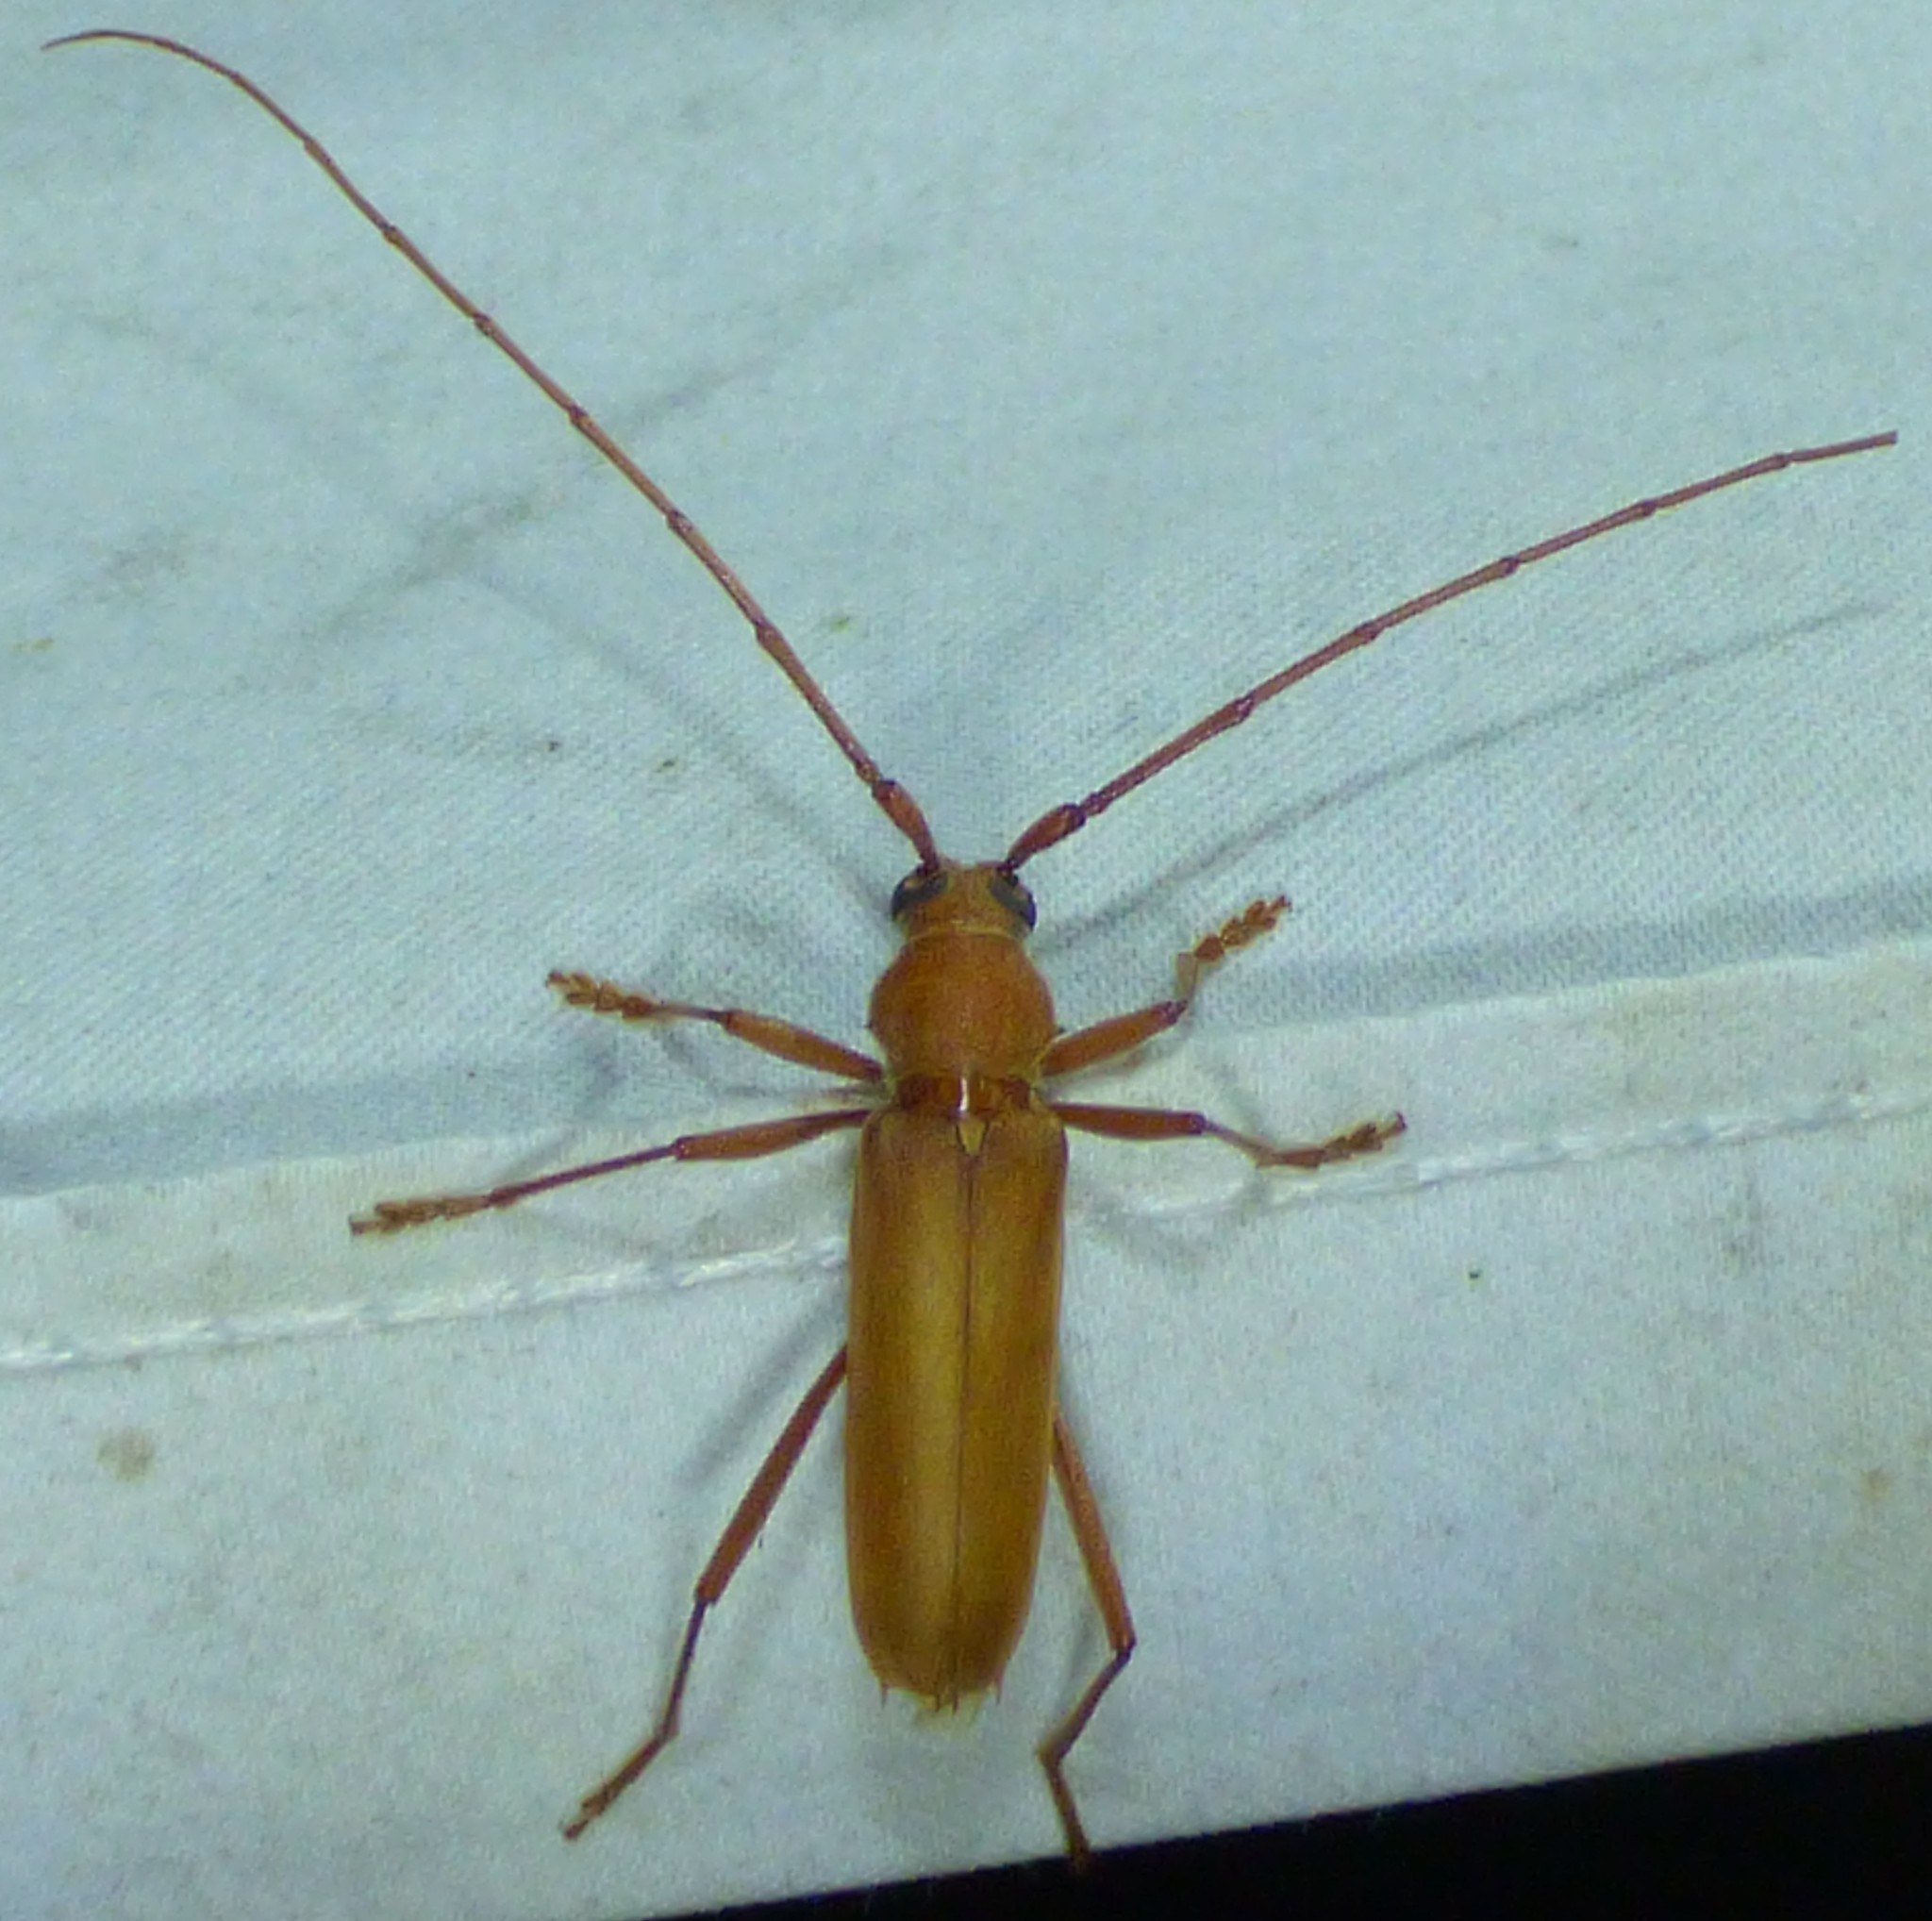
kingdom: Animalia
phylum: Arthropoda
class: Insecta
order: Coleoptera
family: Cerambycidae
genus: Knulliana
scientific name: Knulliana cincta
